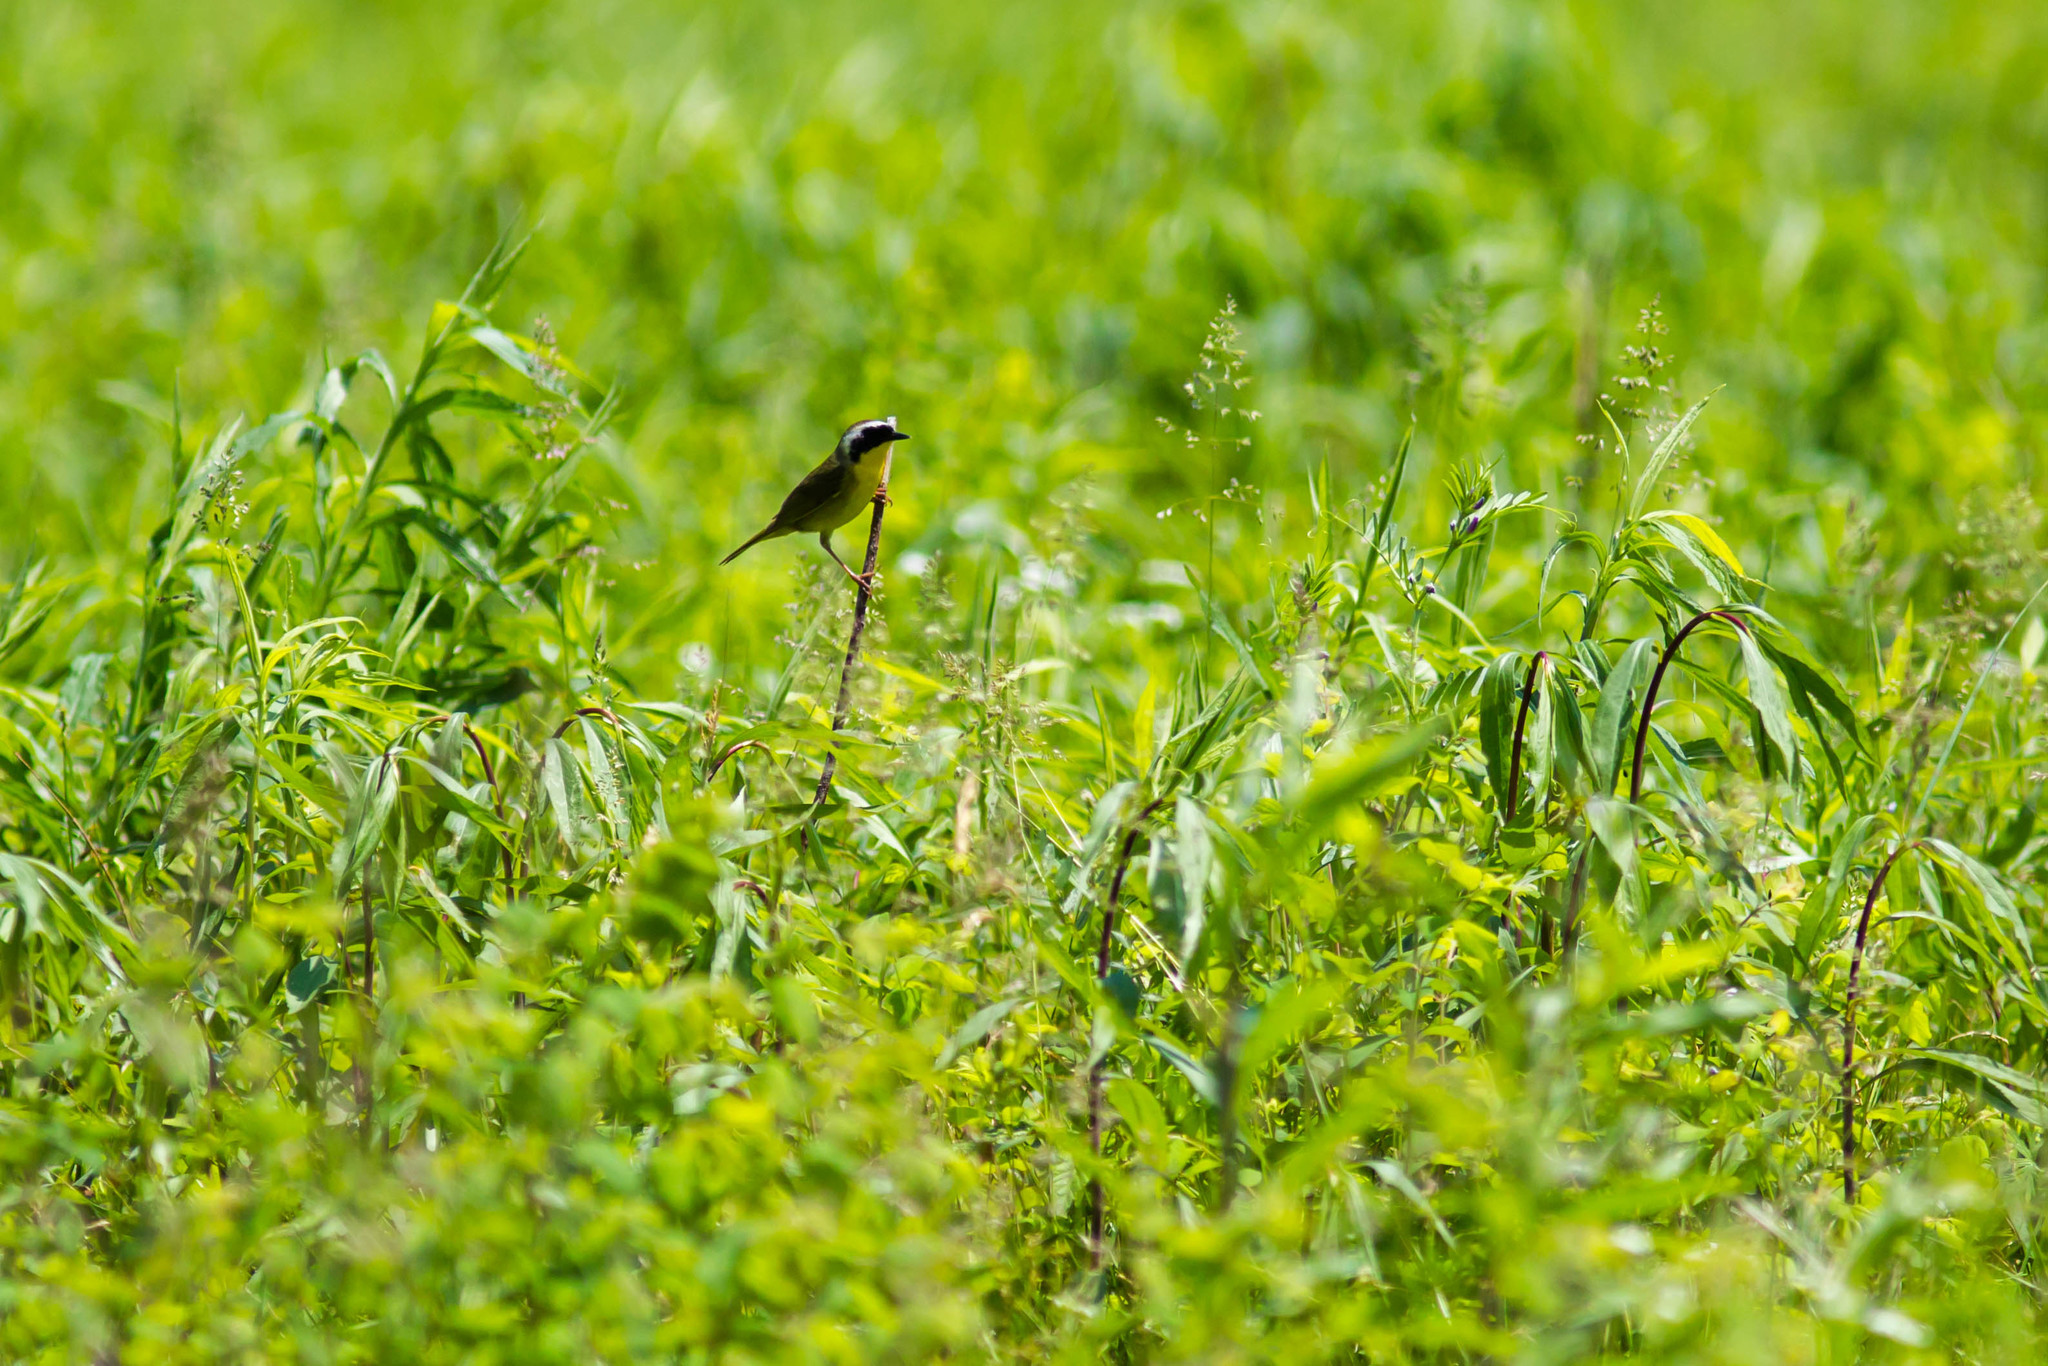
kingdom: Animalia
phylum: Chordata
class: Aves
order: Passeriformes
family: Parulidae
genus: Geothlypis
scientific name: Geothlypis trichas
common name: Common yellowthroat
